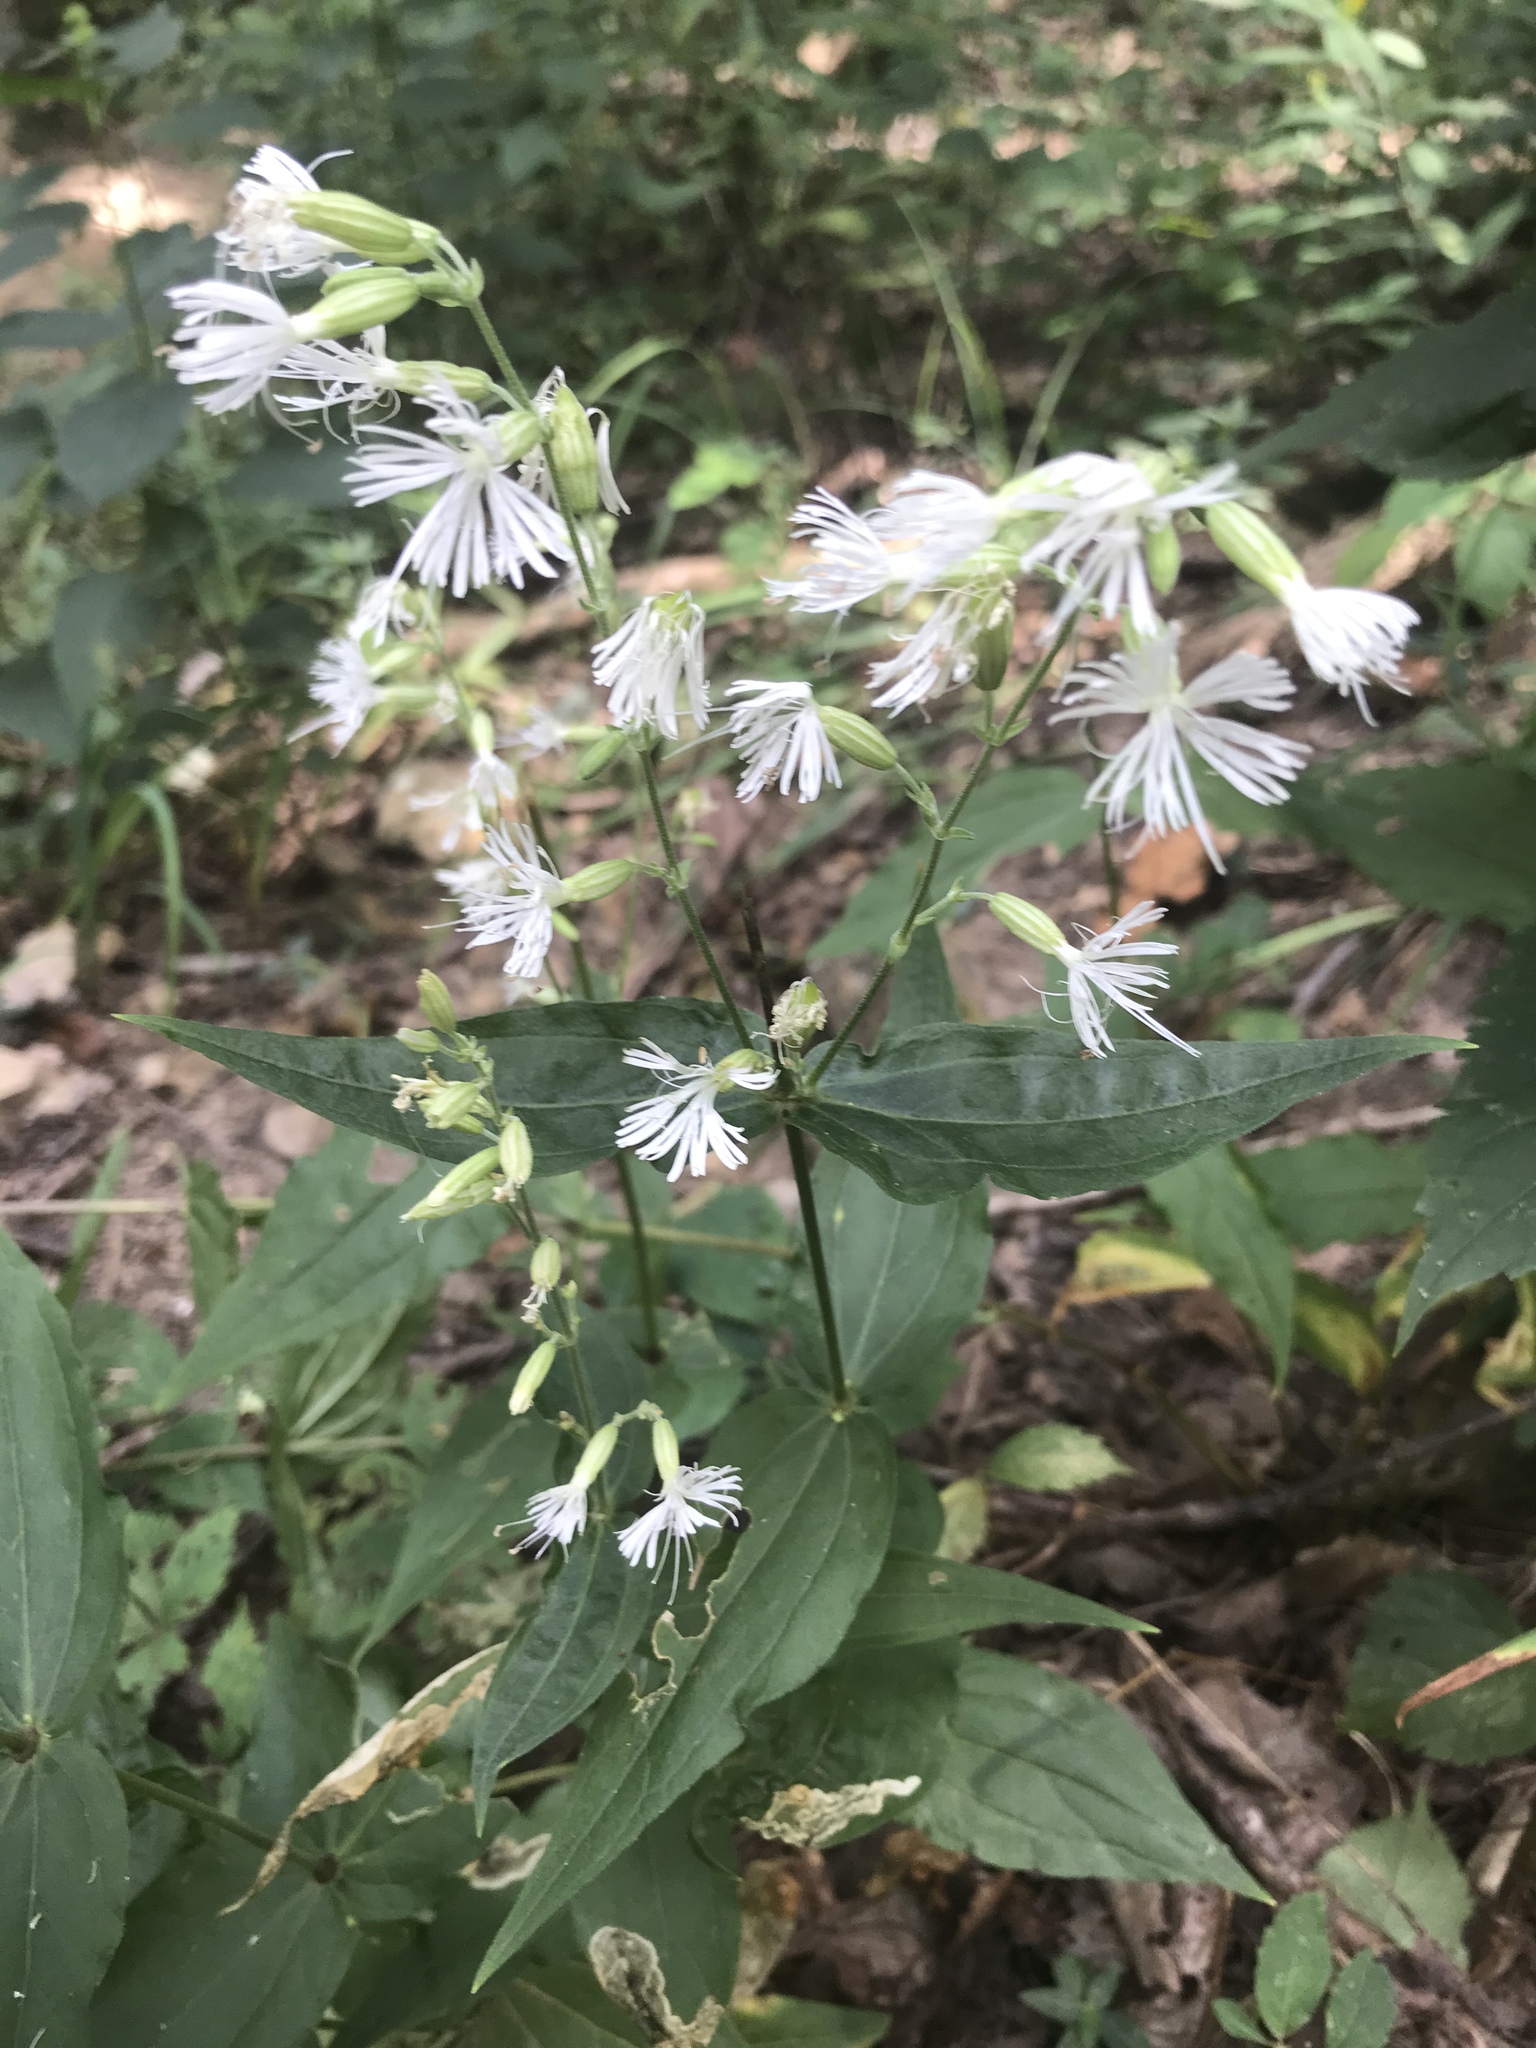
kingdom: Plantae
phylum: Tracheophyta
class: Magnoliopsida
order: Caryophyllales
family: Caryophyllaceae
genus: Silene
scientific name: Silene ovata
